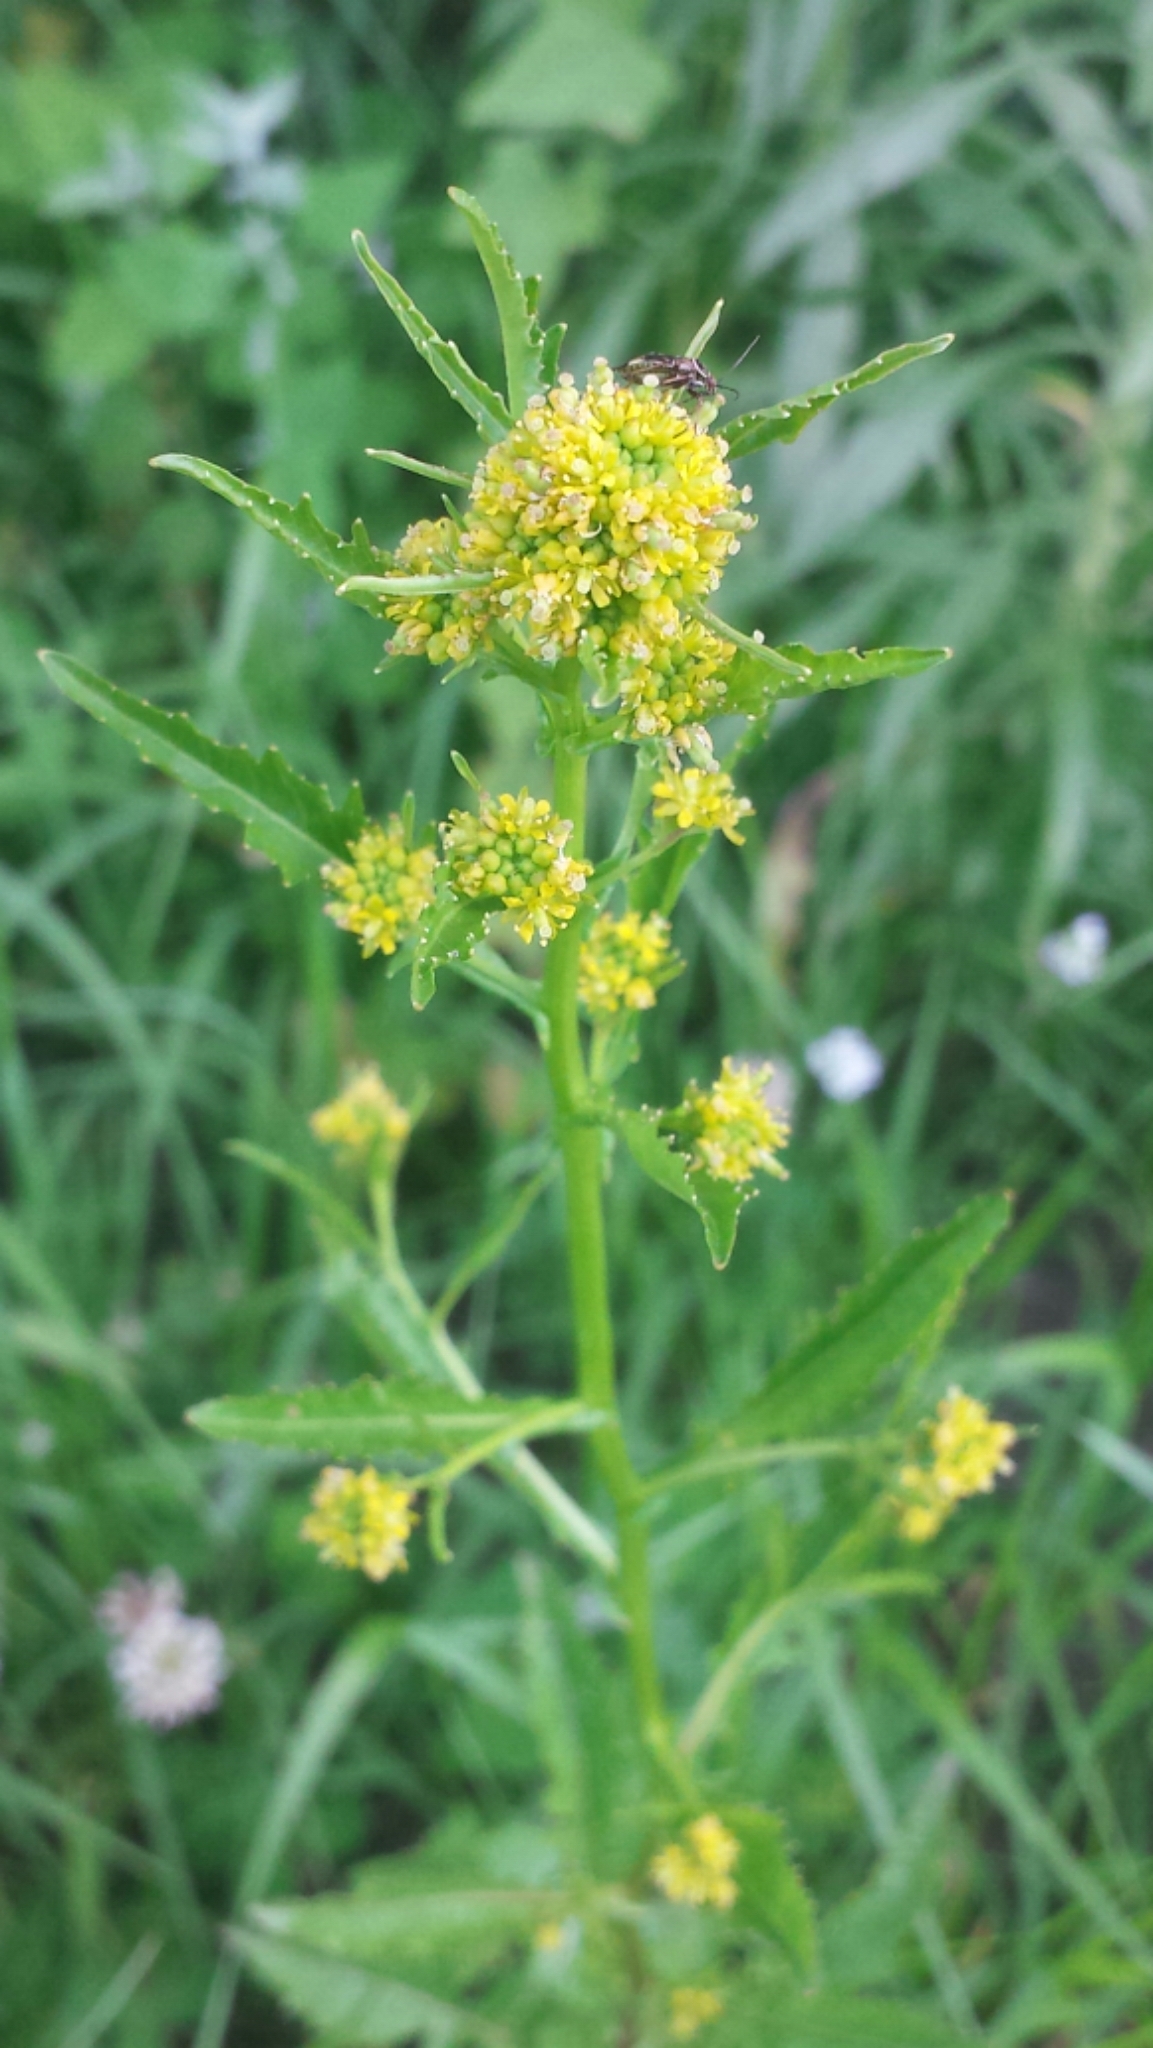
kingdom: Plantae
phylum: Tracheophyta
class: Magnoliopsida
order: Brassicales
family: Brassicaceae
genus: Rorippa
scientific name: Rorippa palustris
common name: Marsh yellow-cress
